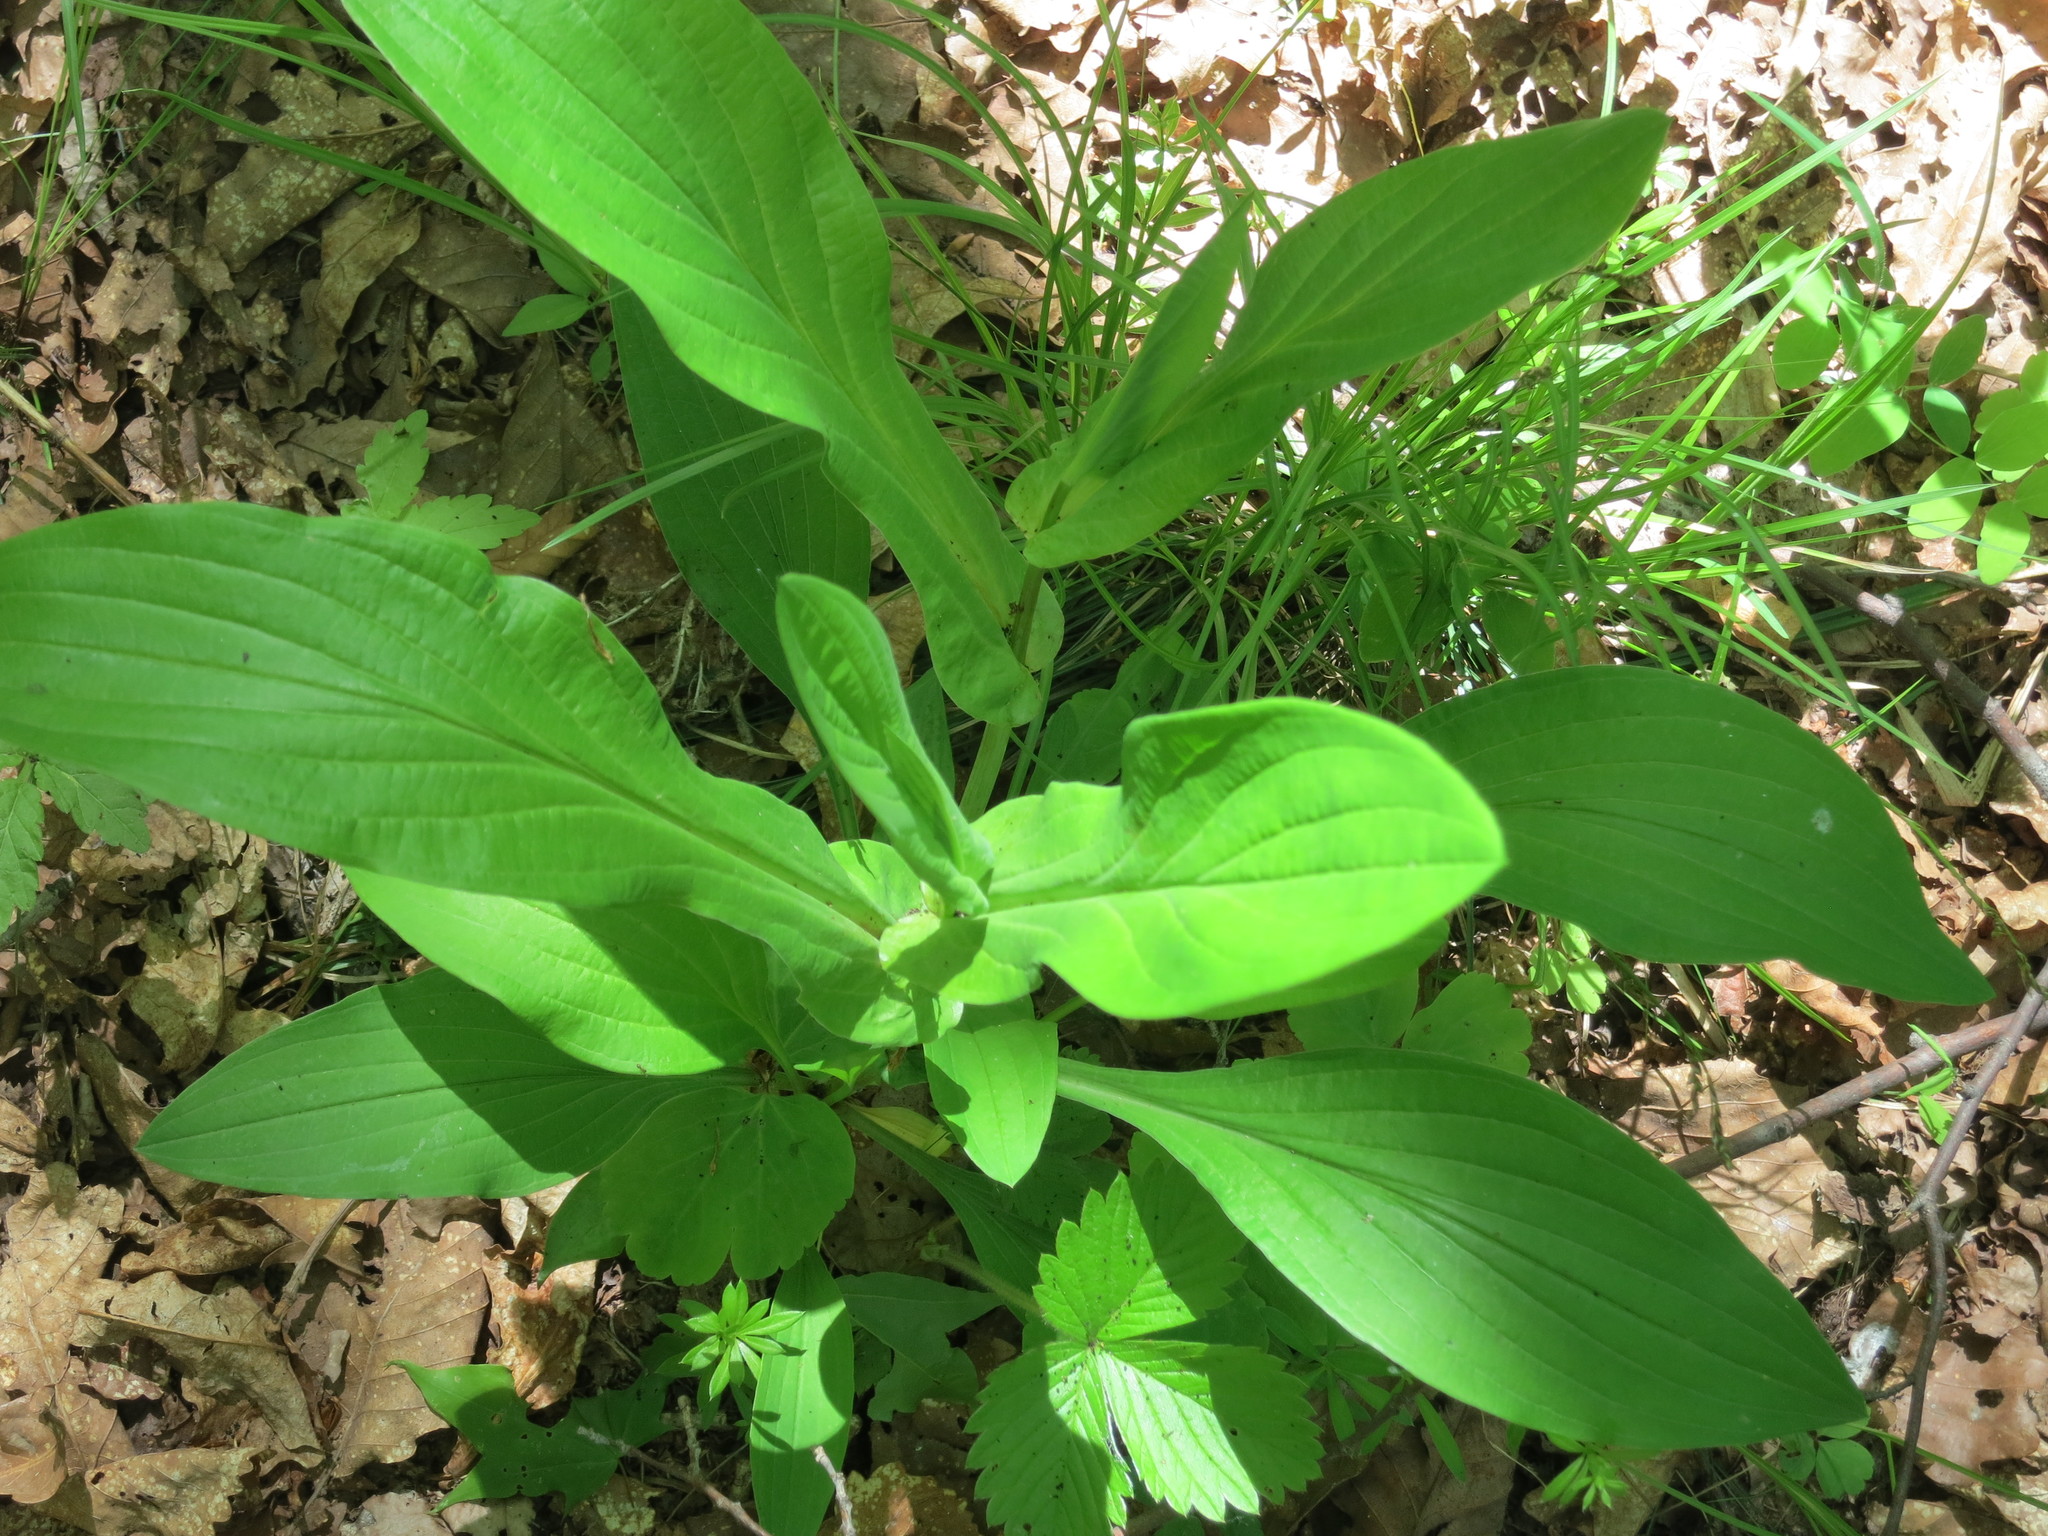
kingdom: Plantae
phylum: Tracheophyta
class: Magnoliopsida
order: Apiales
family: Apiaceae
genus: Bupleurum
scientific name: Bupleurum longiradiatum
